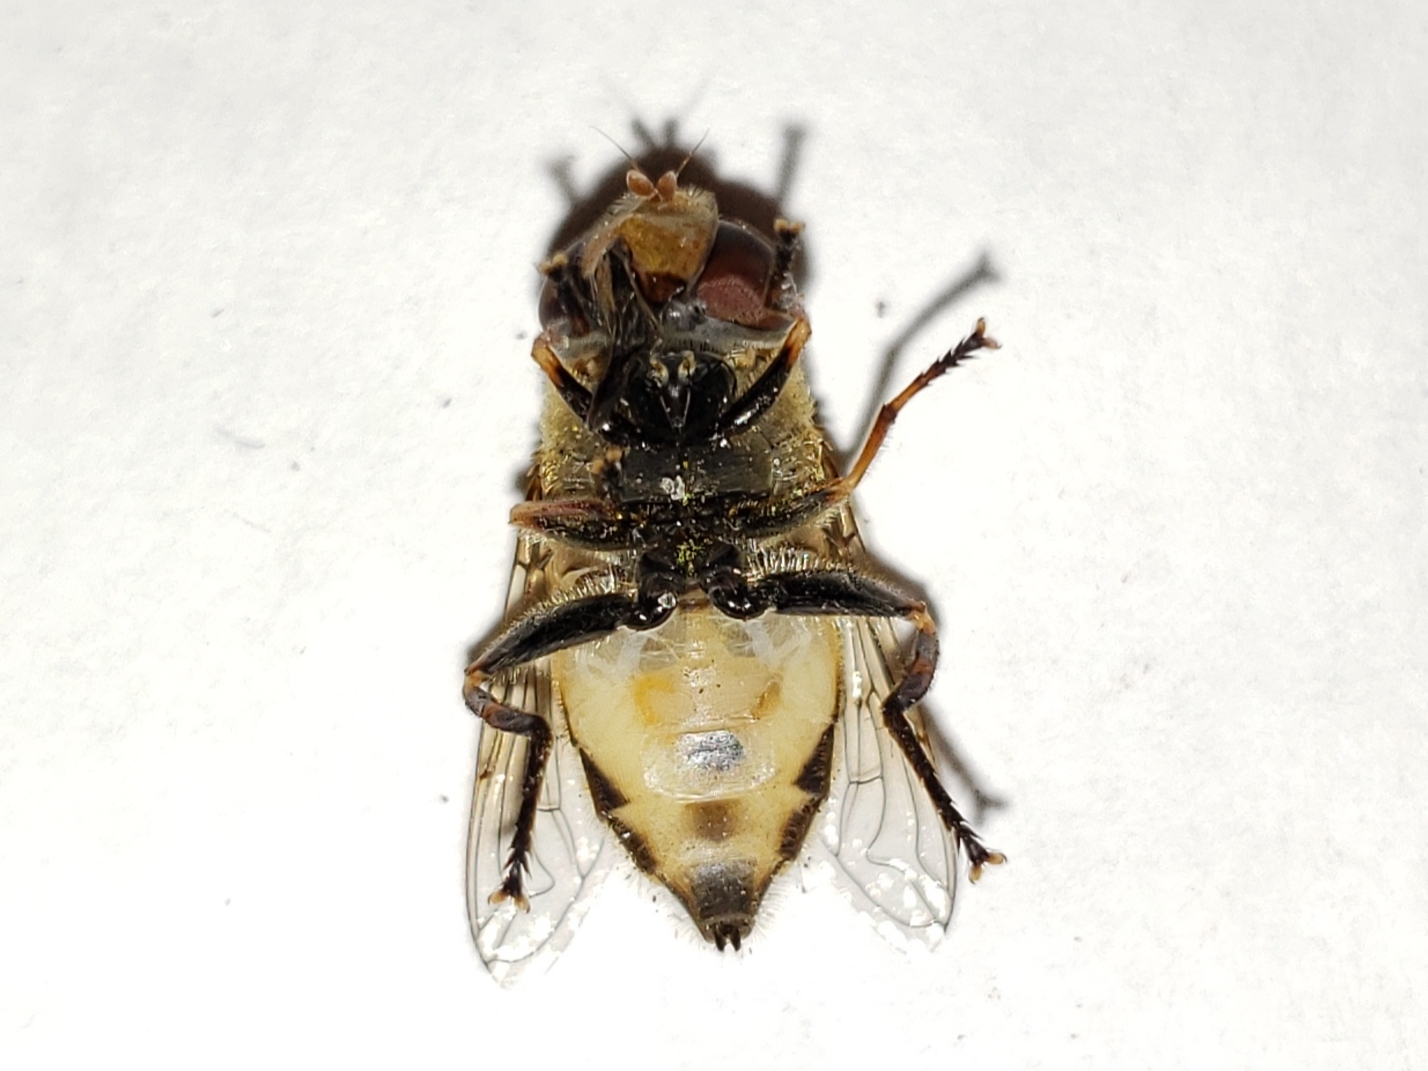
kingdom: Animalia
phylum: Arthropoda
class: Insecta
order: Diptera
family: Syrphidae
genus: Palpada
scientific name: Palpada pusilla
